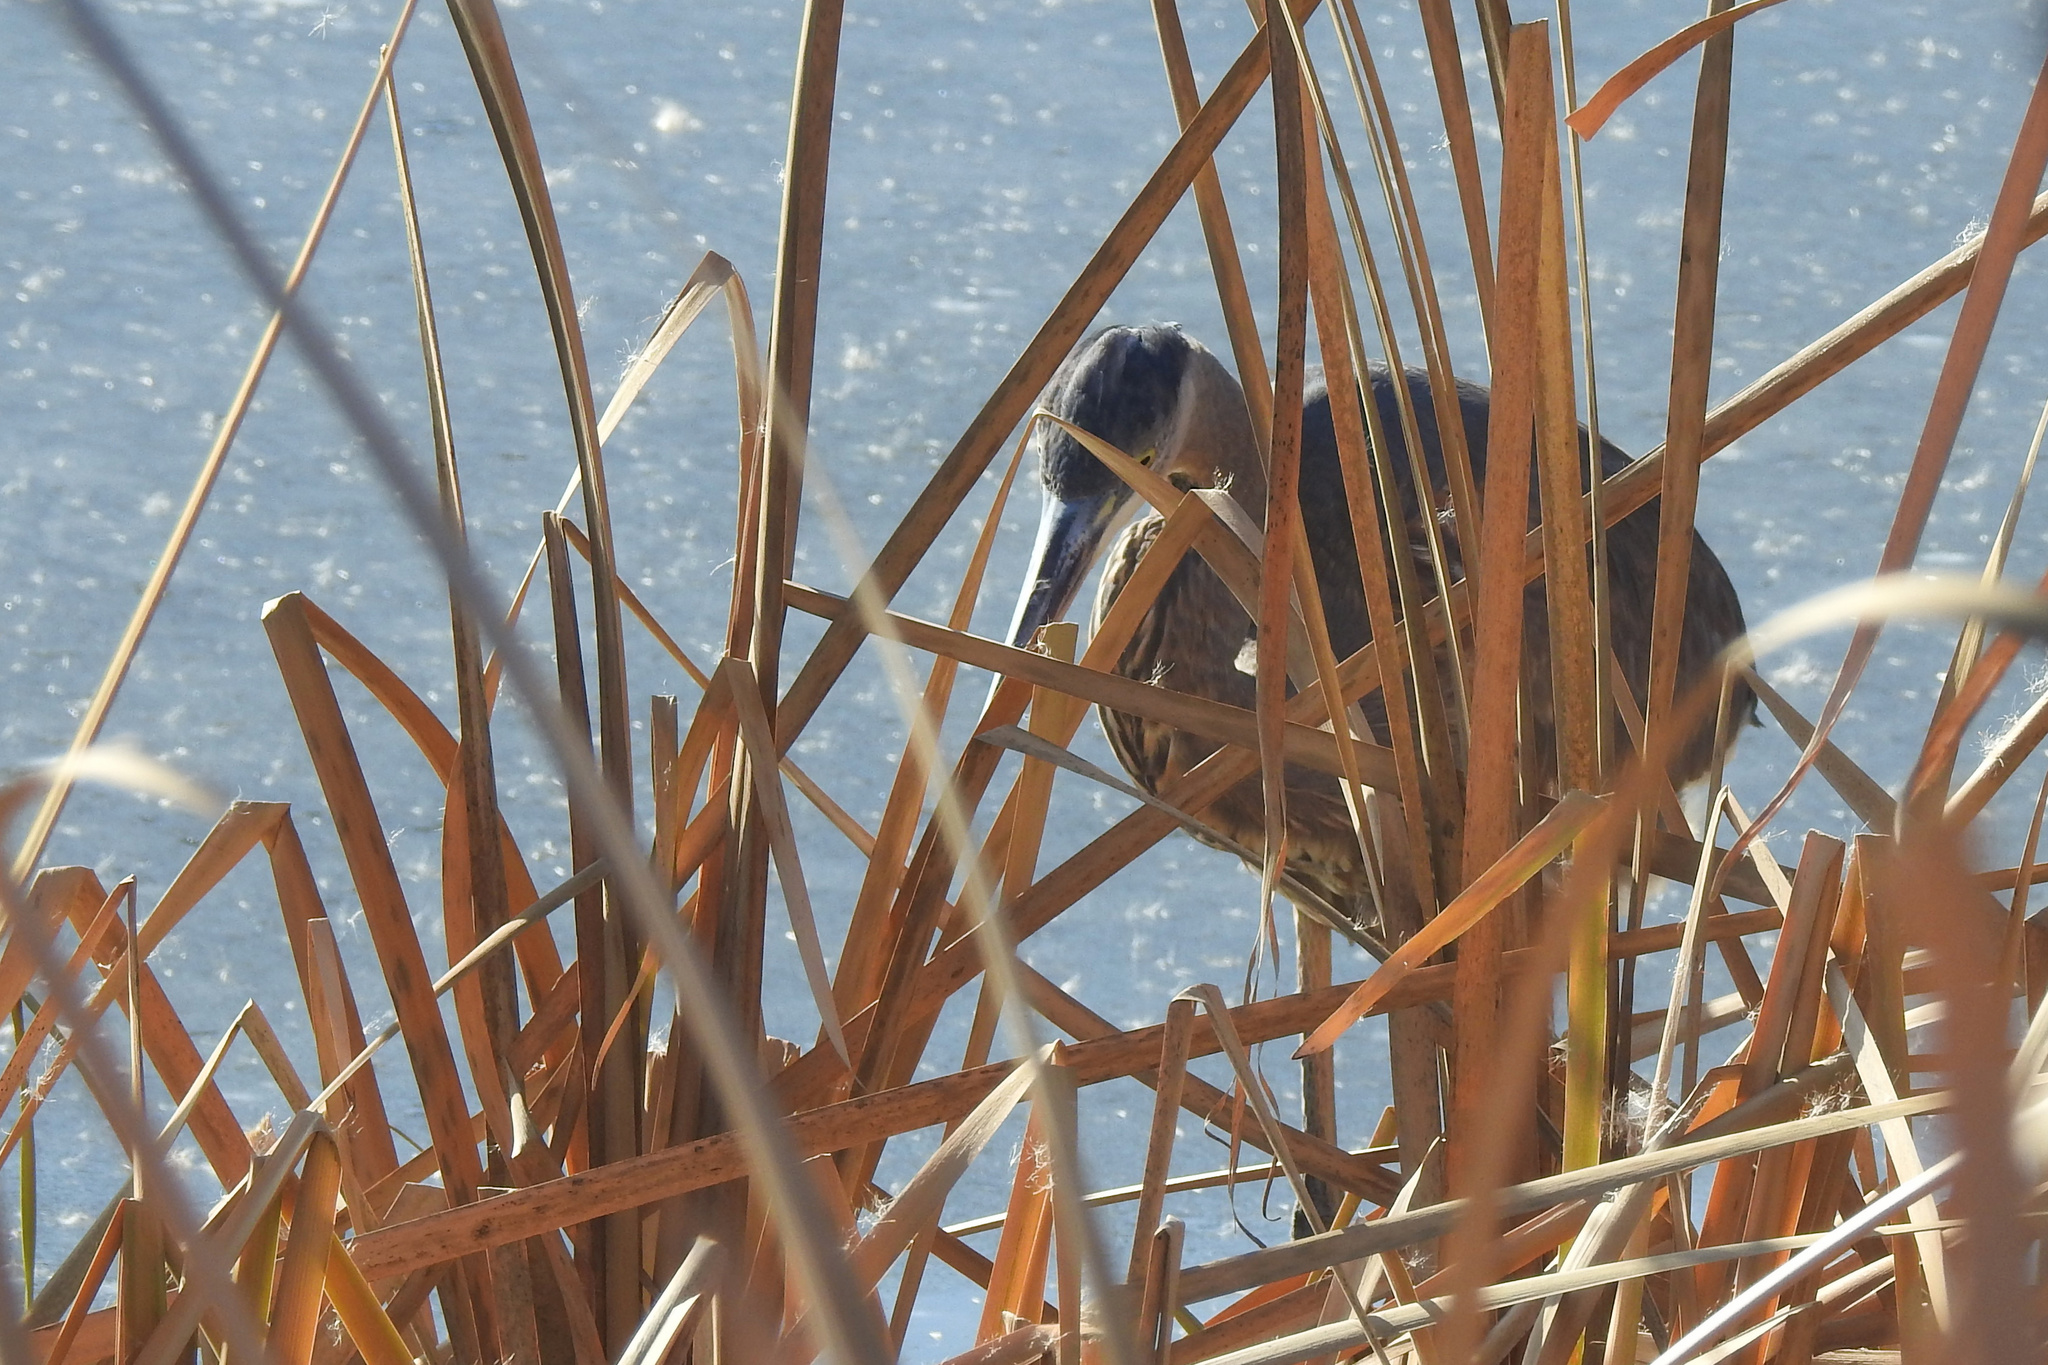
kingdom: Animalia
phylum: Chordata
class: Aves
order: Pelecaniformes
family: Ardeidae
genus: Ardea
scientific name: Ardea herodias
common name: Great blue heron
